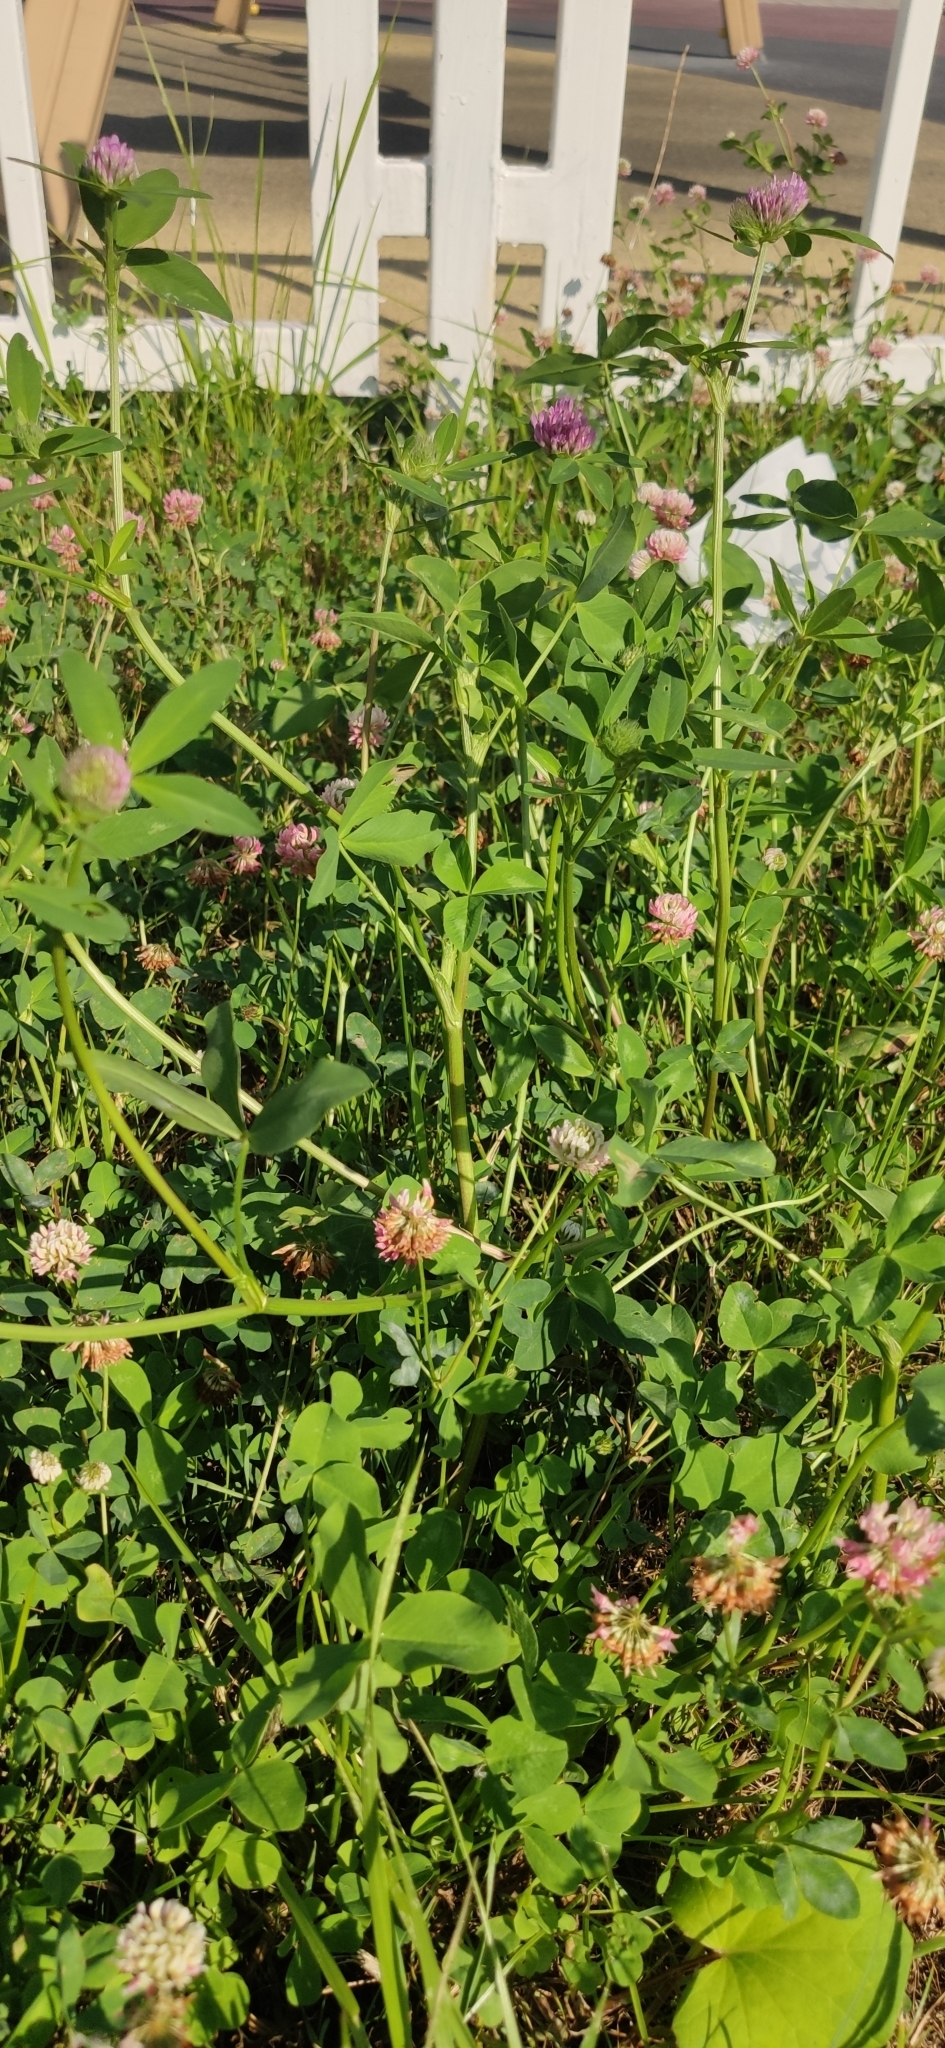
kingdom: Plantae
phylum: Tracheophyta
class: Magnoliopsida
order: Fabales
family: Fabaceae
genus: Trifolium
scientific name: Trifolium pratense
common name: Red clover
